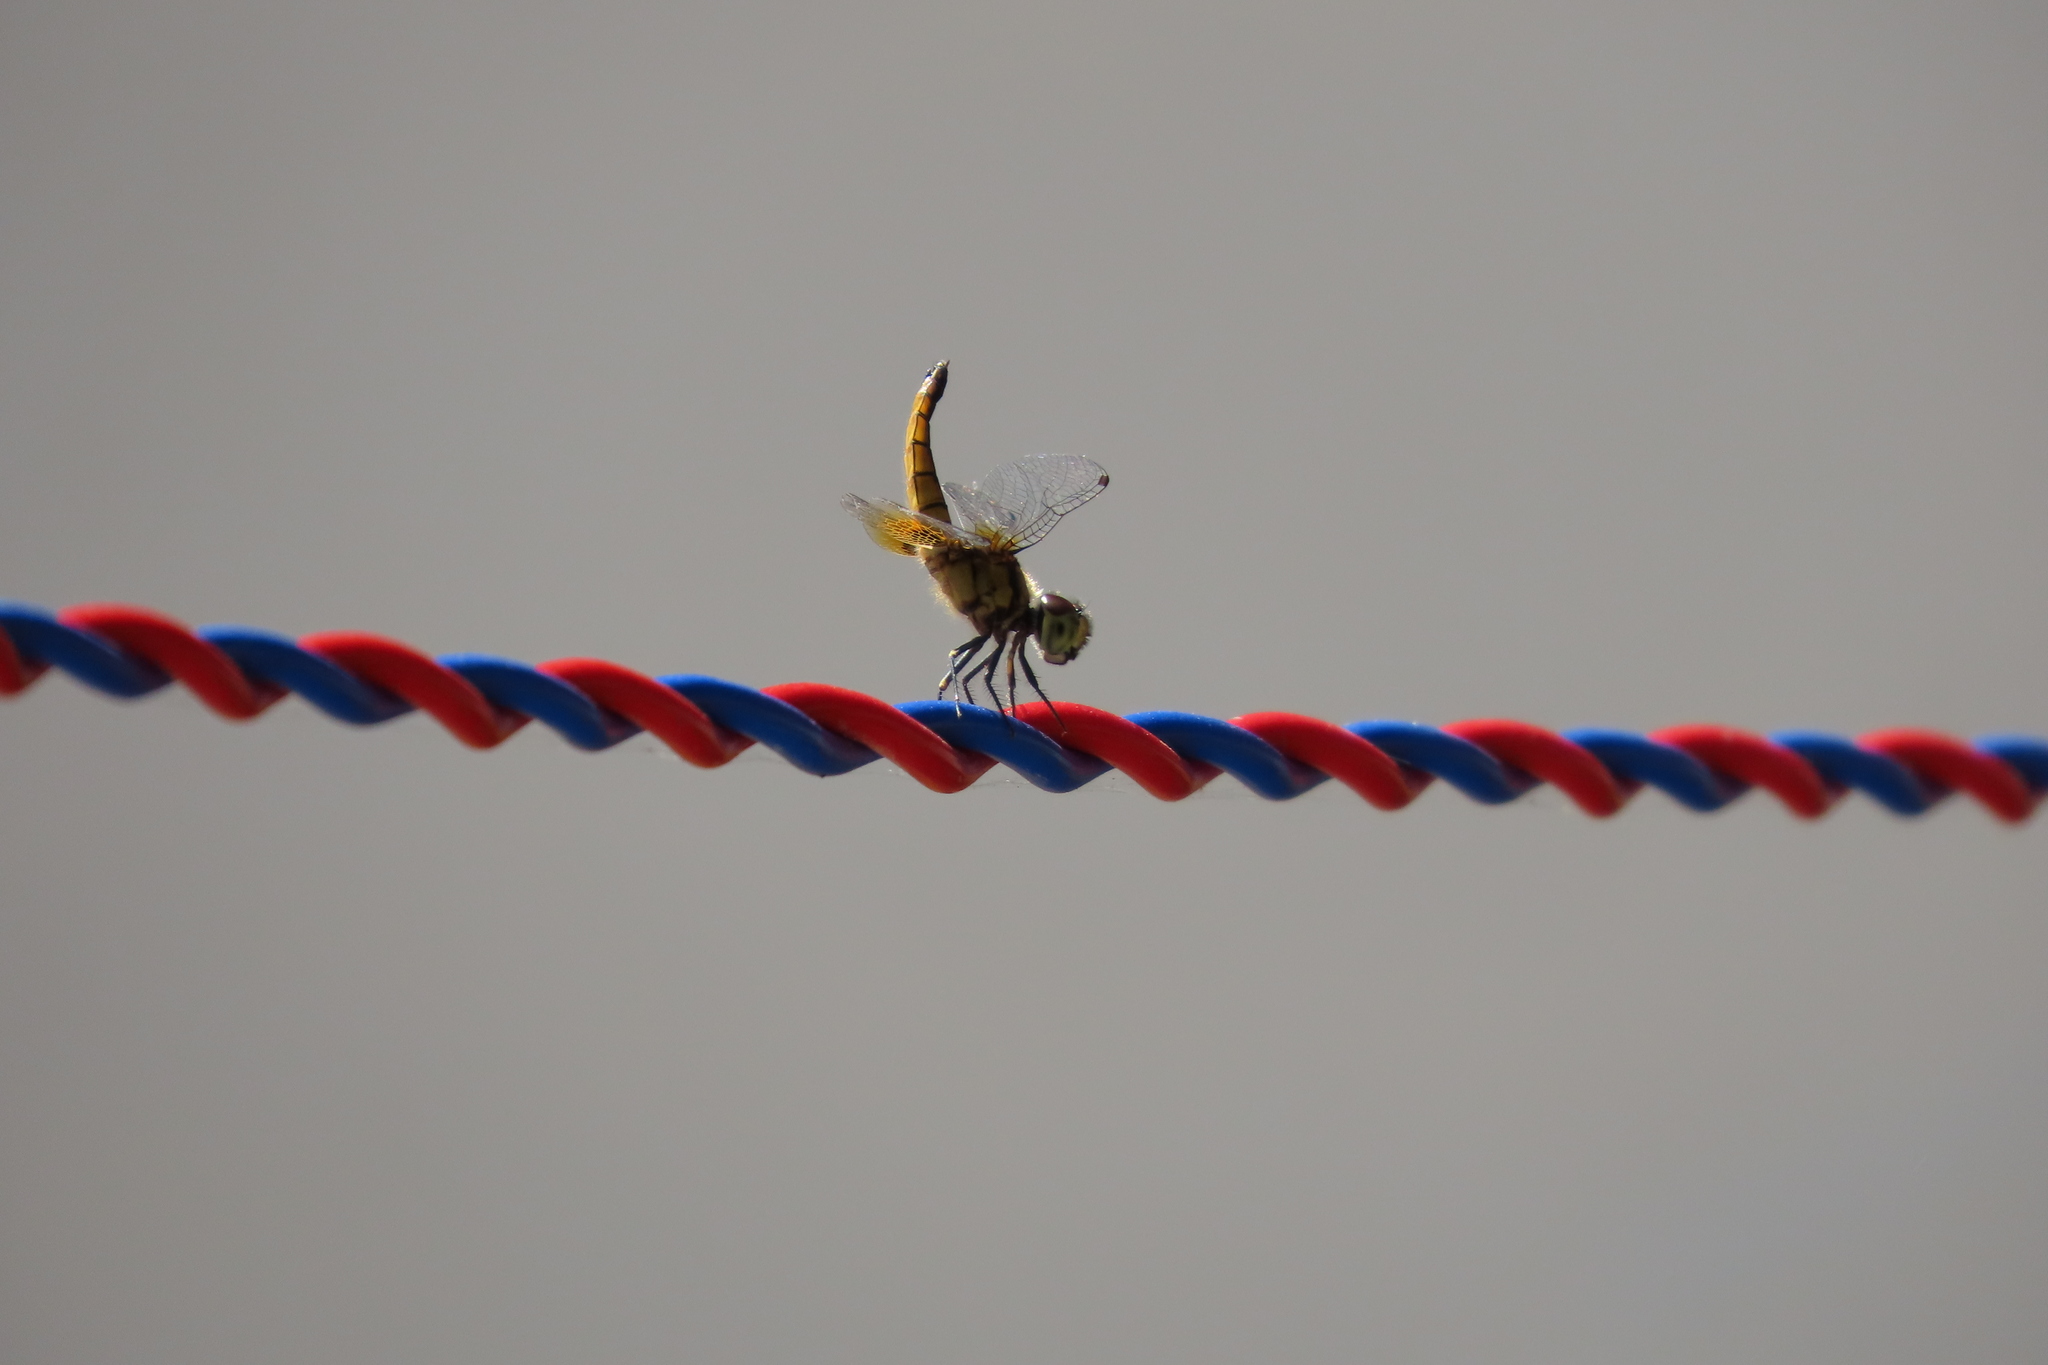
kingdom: Animalia
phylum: Arthropoda
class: Insecta
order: Odonata
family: Libellulidae
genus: Aethriamanta
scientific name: Aethriamanta brevipennis
